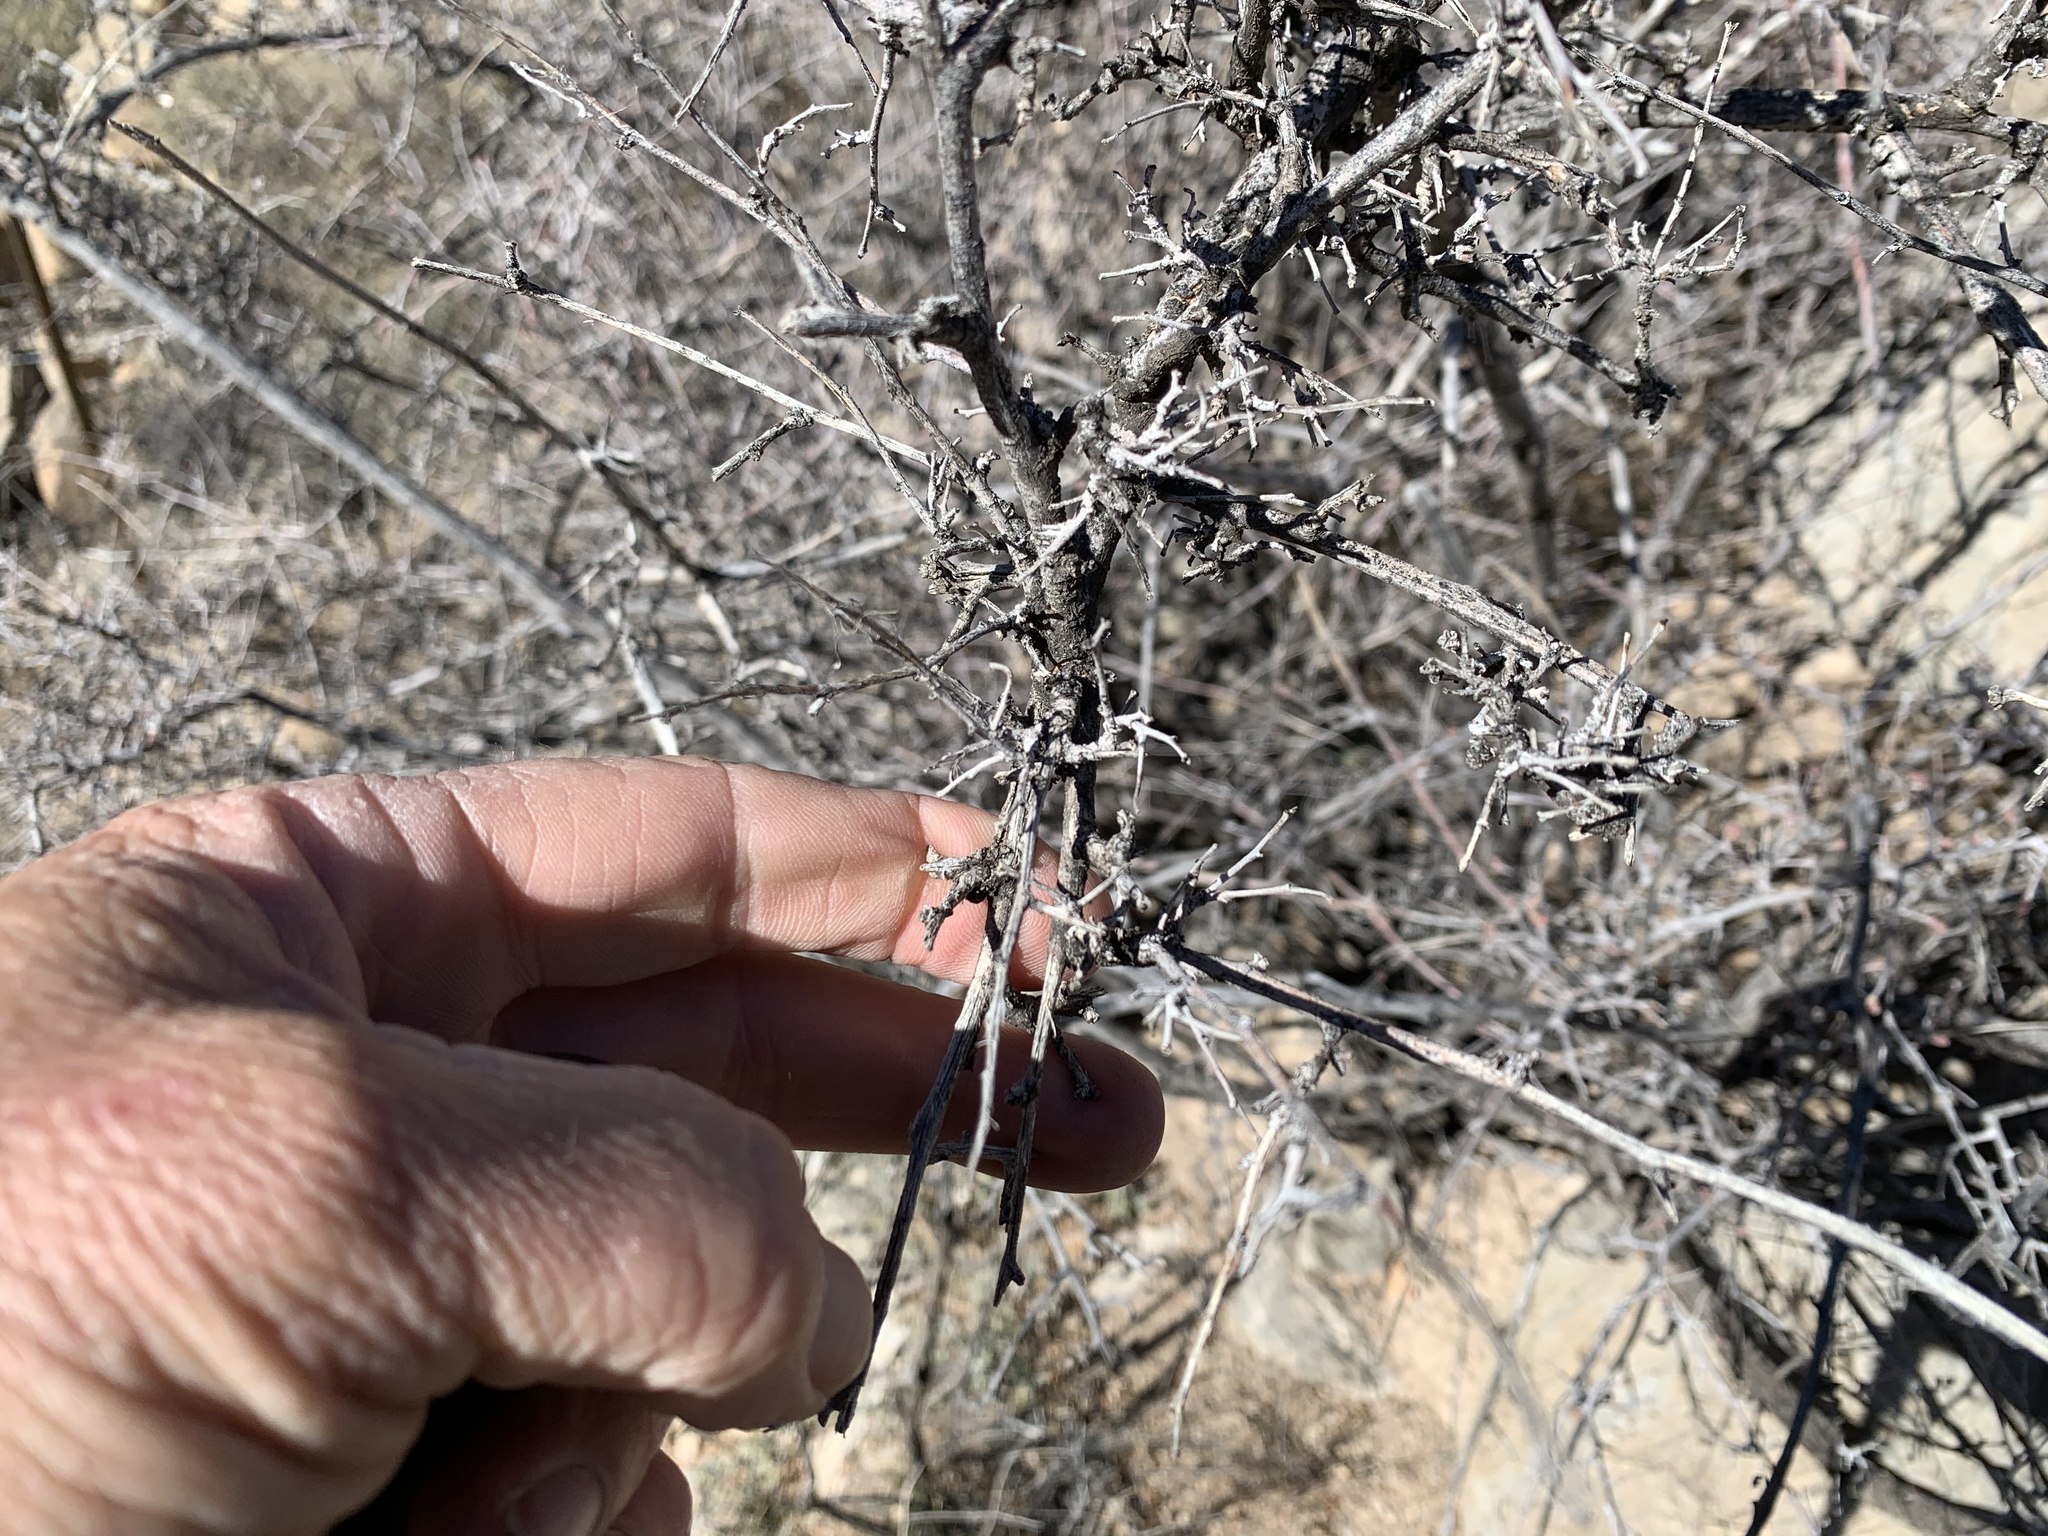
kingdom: Plantae
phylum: Tracheophyta
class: Magnoliopsida
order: Sapindales
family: Anacardiaceae
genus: Rhus
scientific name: Rhus microphylla
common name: Desert sumac
